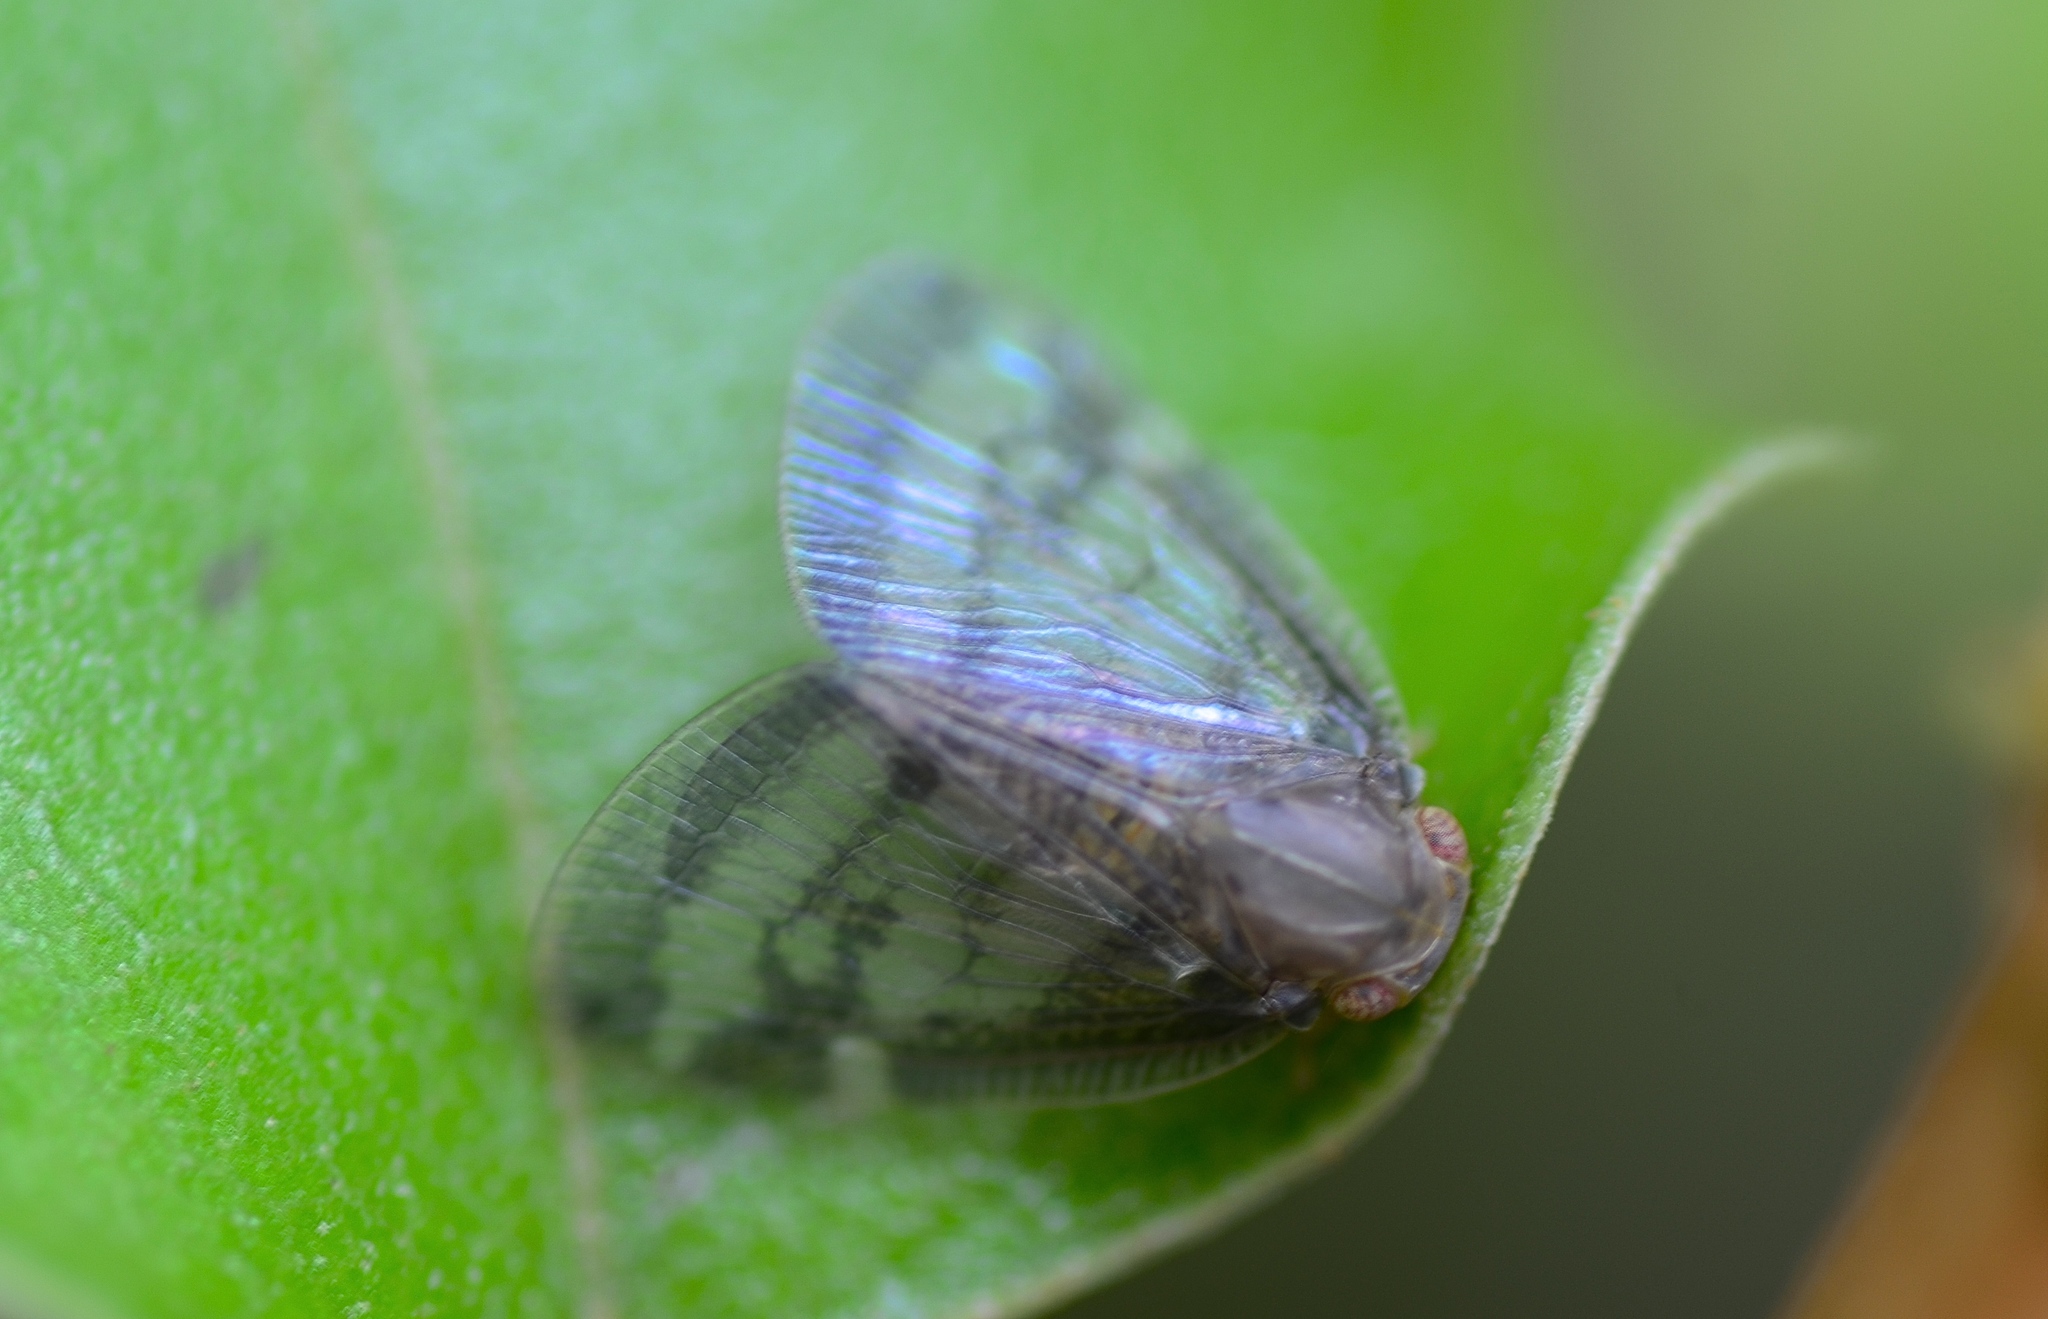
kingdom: Animalia
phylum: Arthropoda
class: Insecta
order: Hemiptera
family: Ricaniidae
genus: Scolypopa
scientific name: Scolypopa australis
